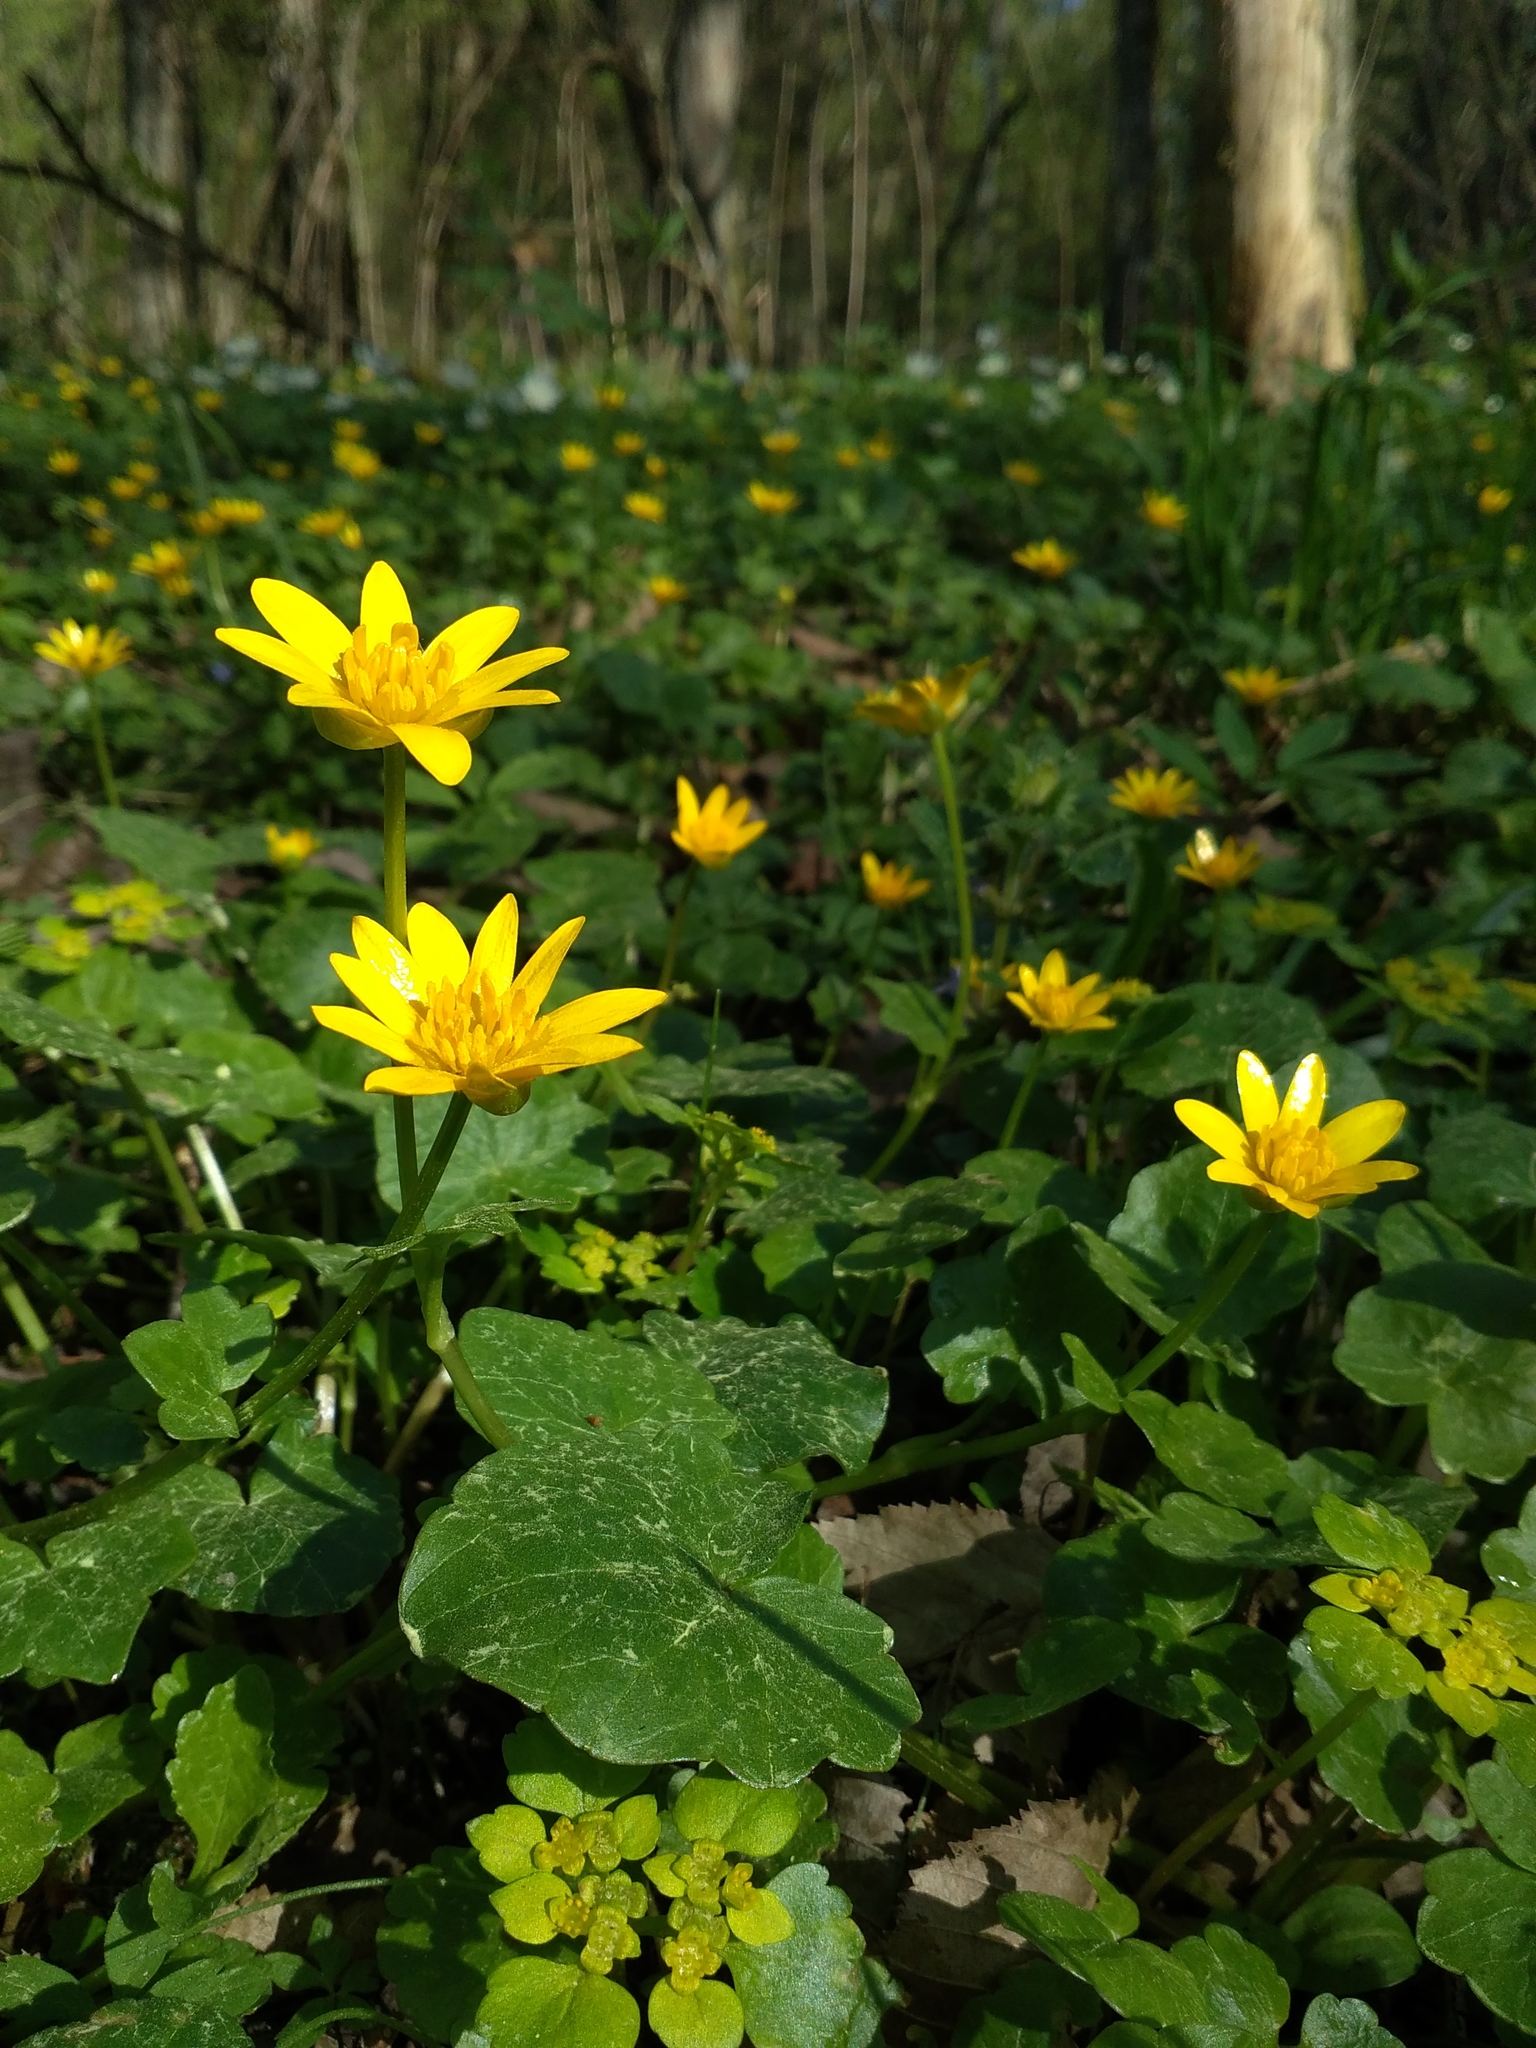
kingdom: Plantae
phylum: Tracheophyta
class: Magnoliopsida
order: Ranunculales
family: Ranunculaceae
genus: Ficaria
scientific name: Ficaria verna
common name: Lesser celandine
